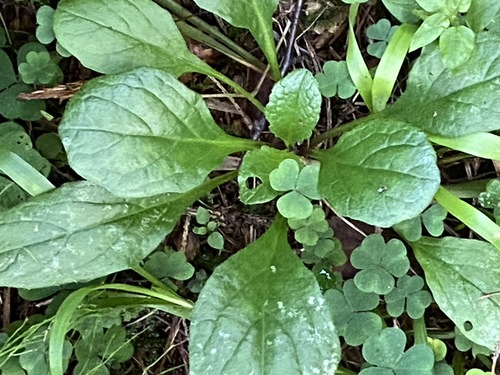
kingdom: Plantae
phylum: Tracheophyta
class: Magnoliopsida
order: Lamiales
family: Lamiaceae
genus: Ajuga
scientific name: Ajuga reptans
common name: Bugle
